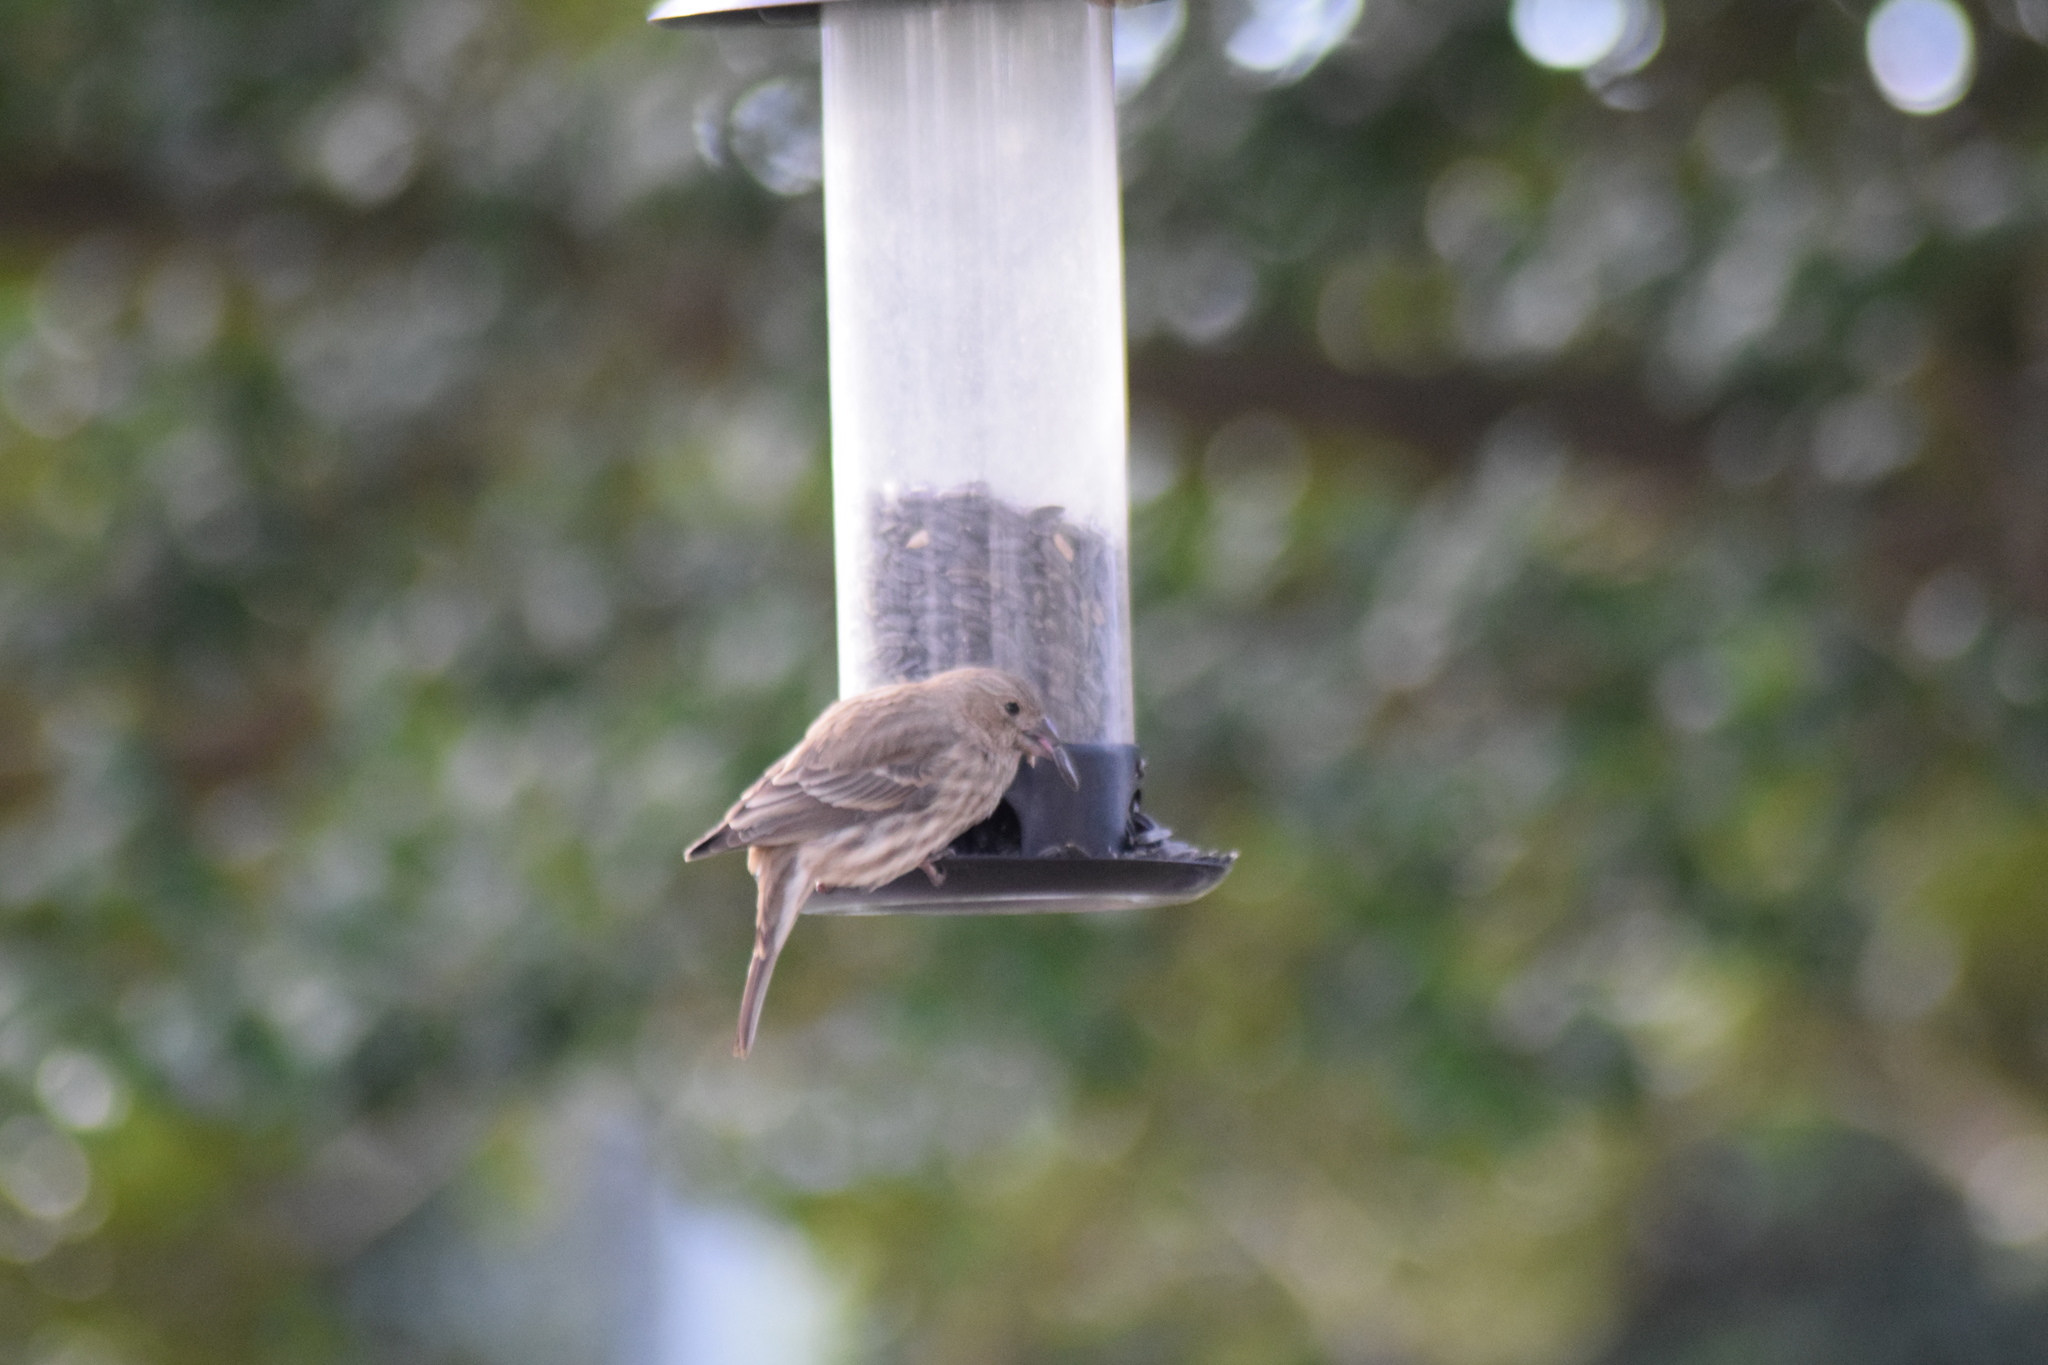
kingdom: Animalia
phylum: Chordata
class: Aves
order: Passeriformes
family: Fringillidae
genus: Haemorhous
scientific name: Haemorhous mexicanus
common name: House finch
